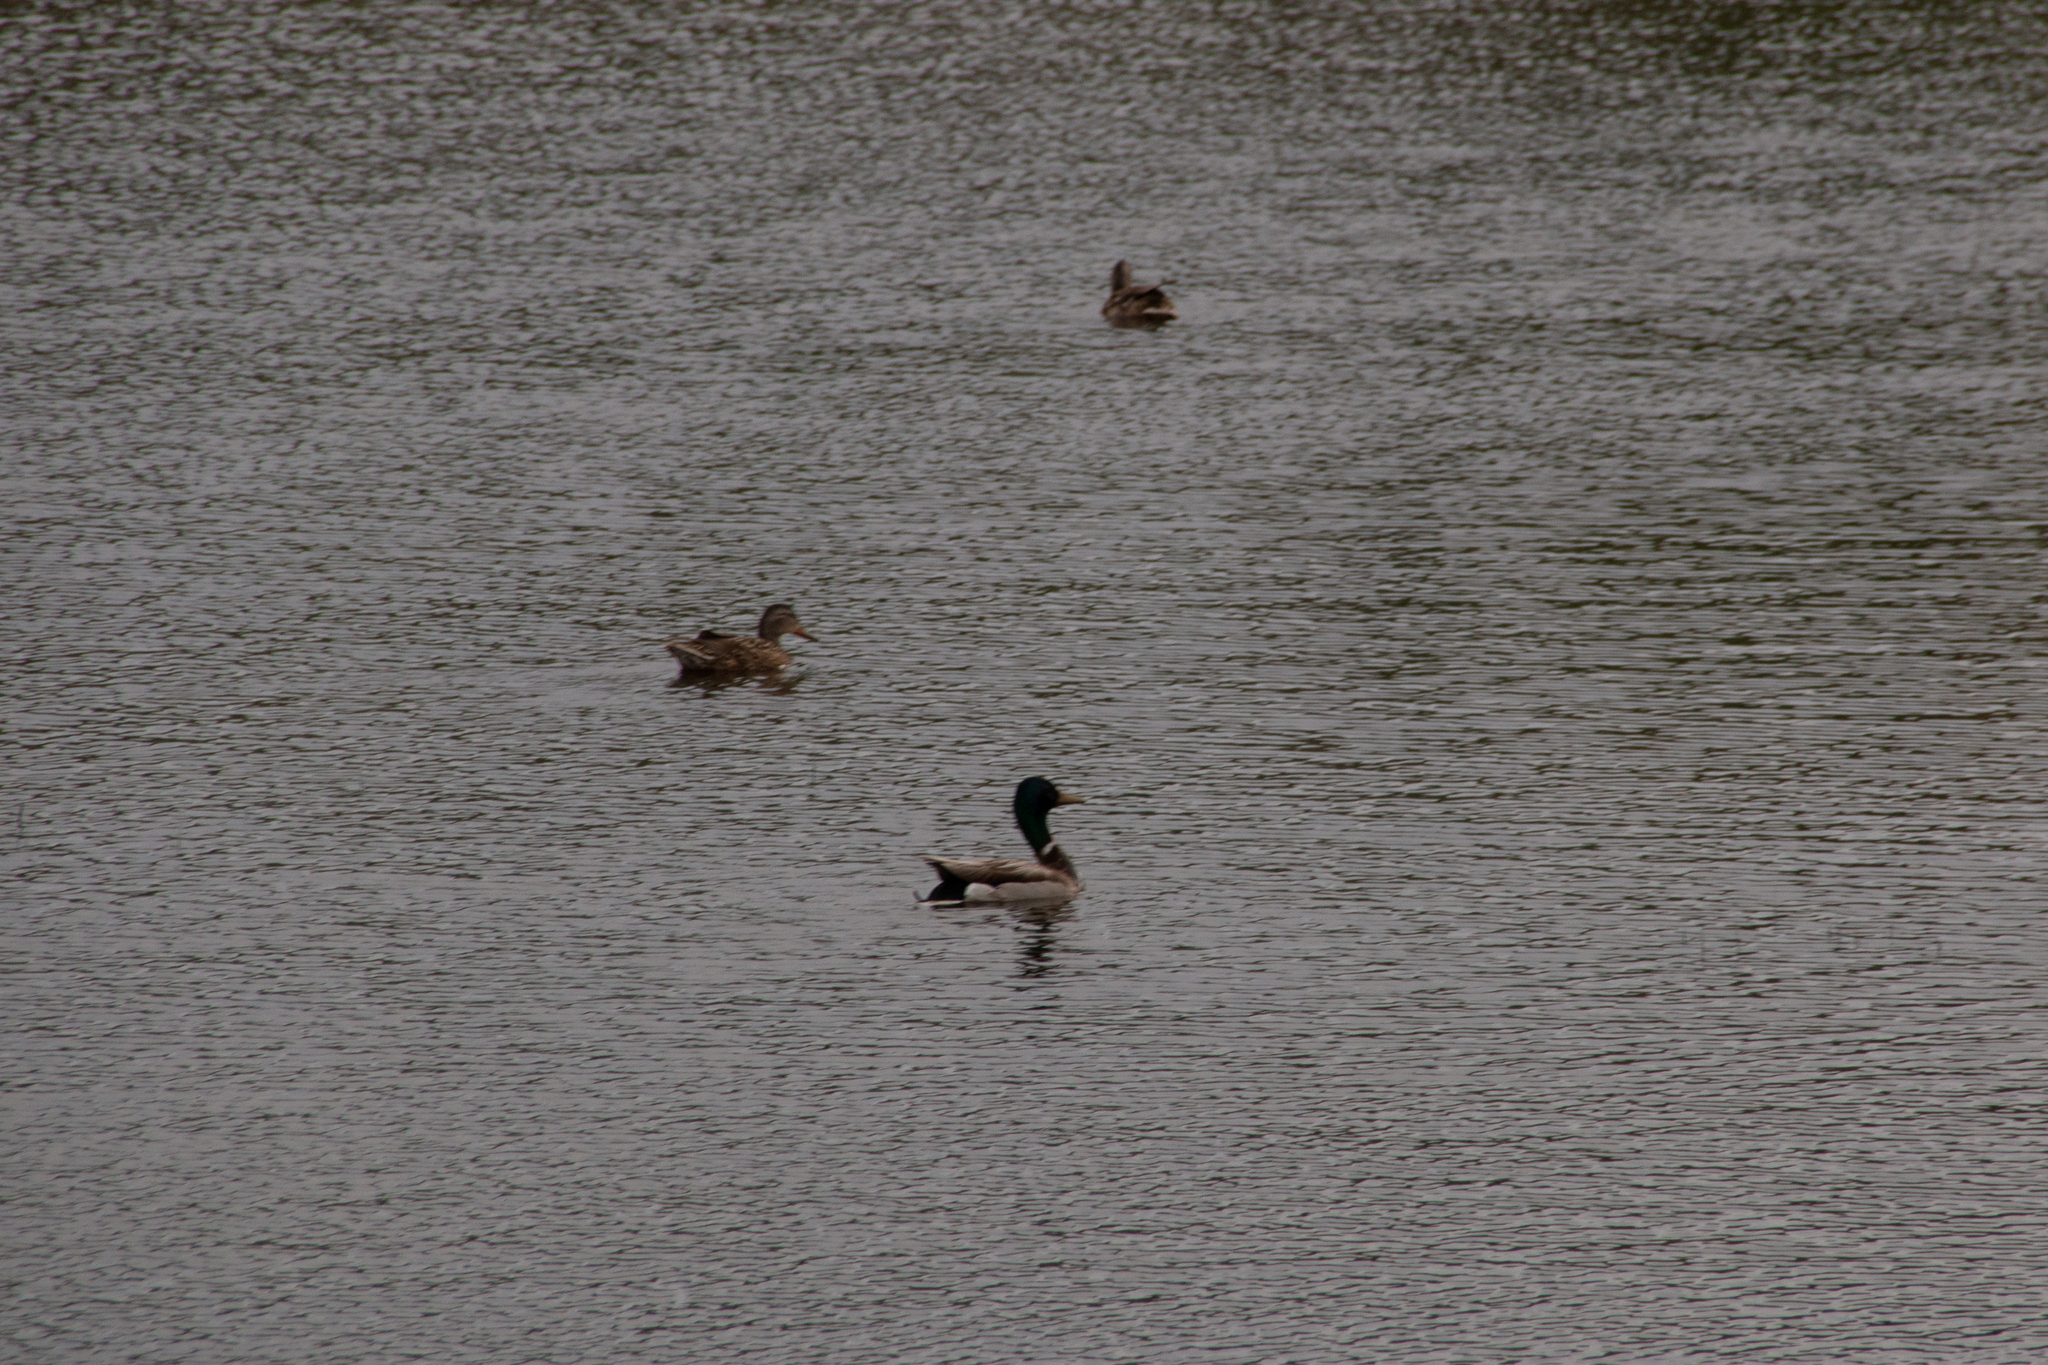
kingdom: Animalia
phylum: Chordata
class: Aves
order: Anseriformes
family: Anatidae
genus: Anas
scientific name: Anas platyrhynchos
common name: Mallard
